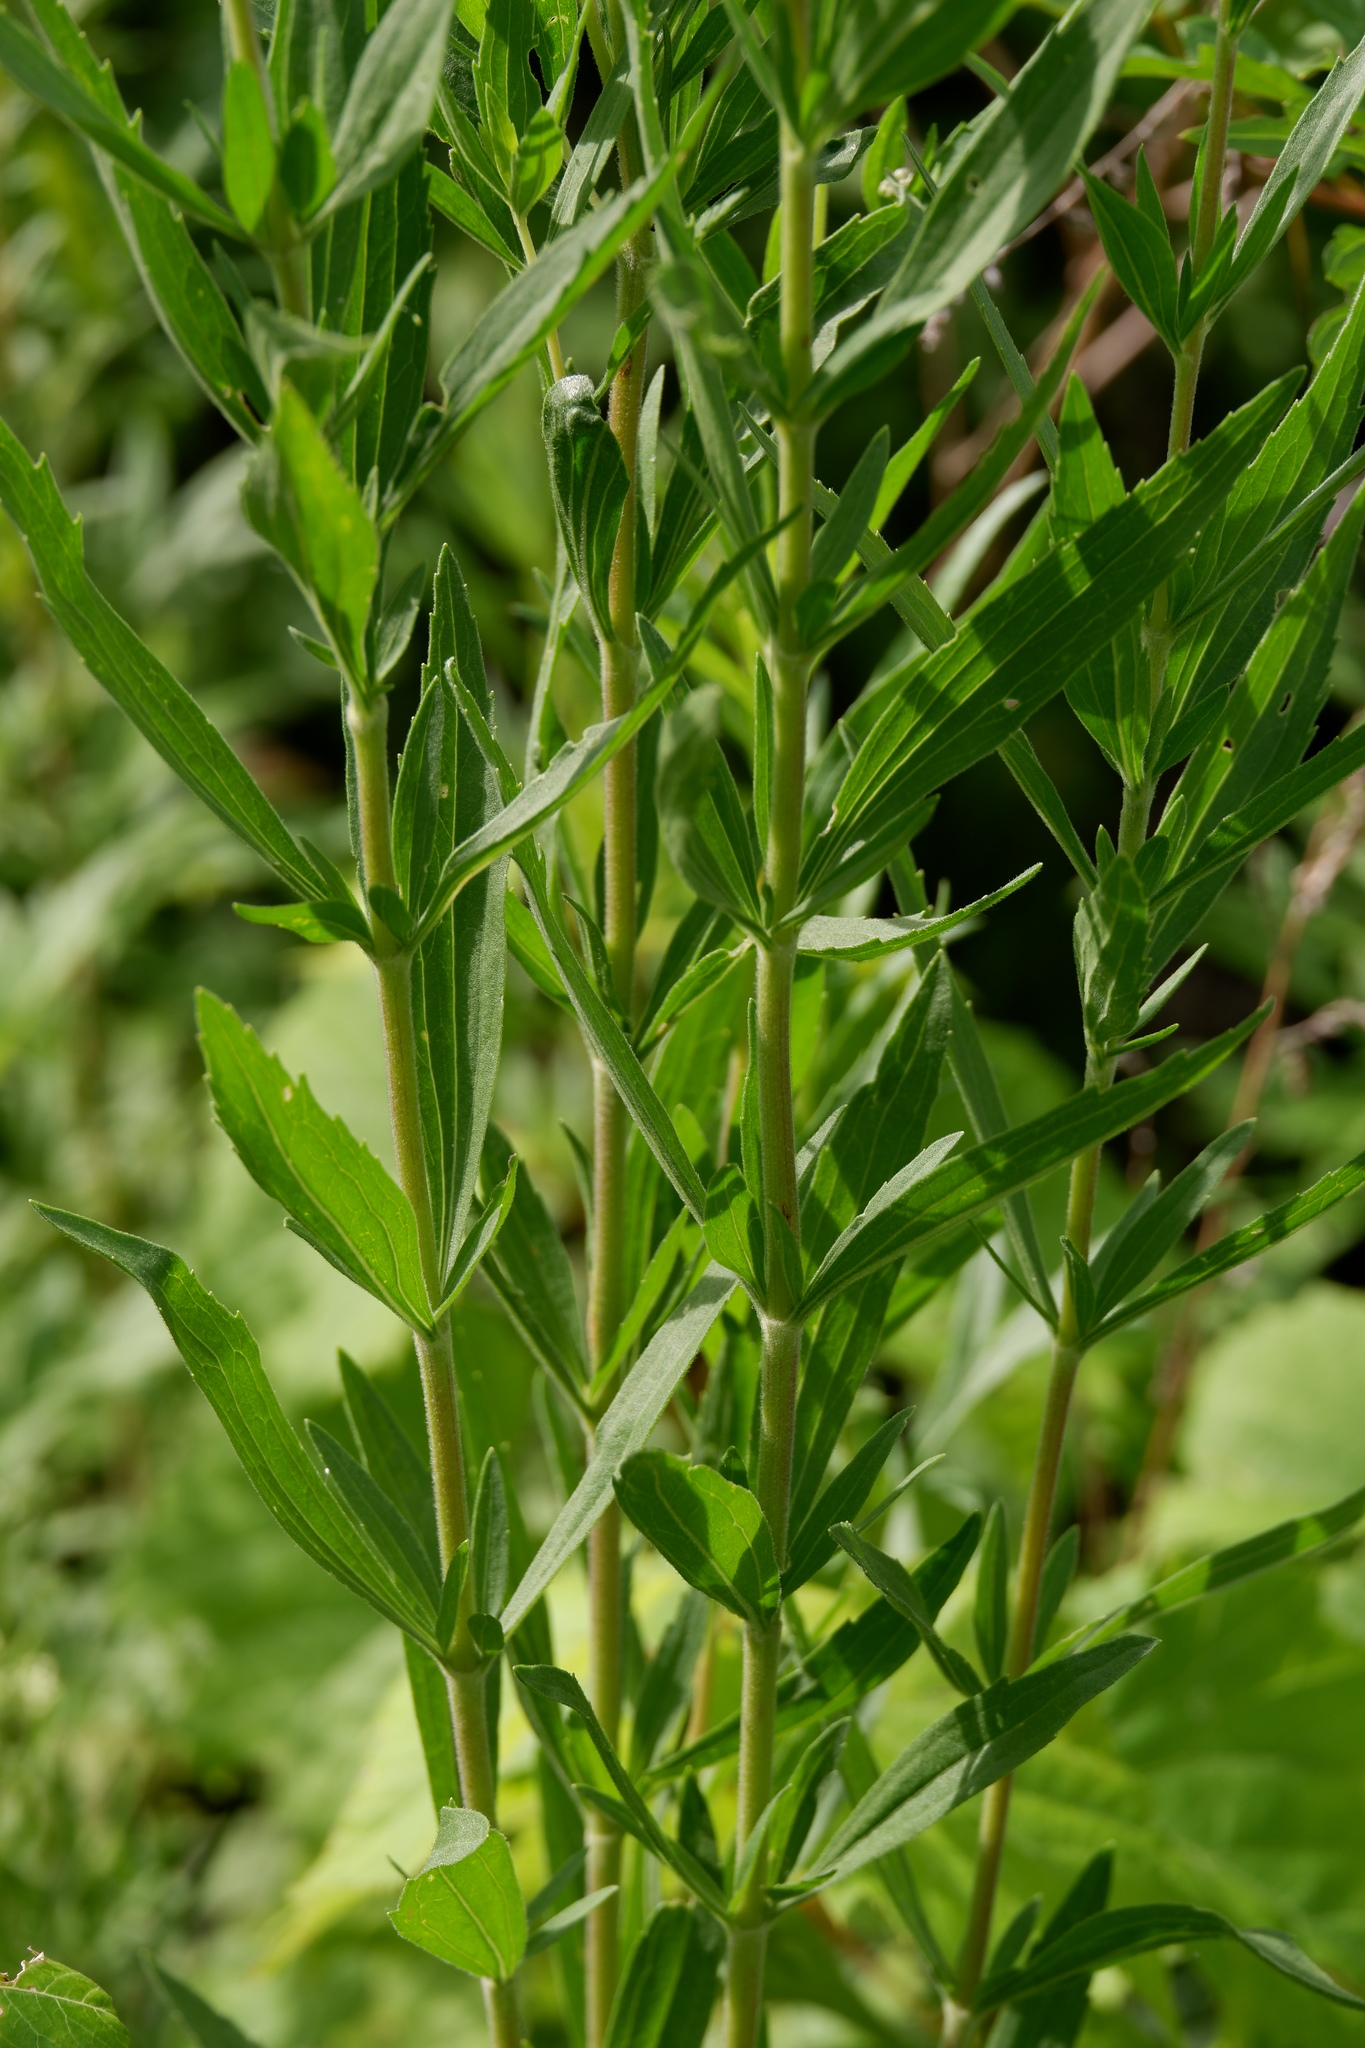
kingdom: Plantae
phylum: Tracheophyta
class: Magnoliopsida
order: Asterales
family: Asteraceae
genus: Eupatorium
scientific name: Eupatorium altissimum
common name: Tall thoroughwort
